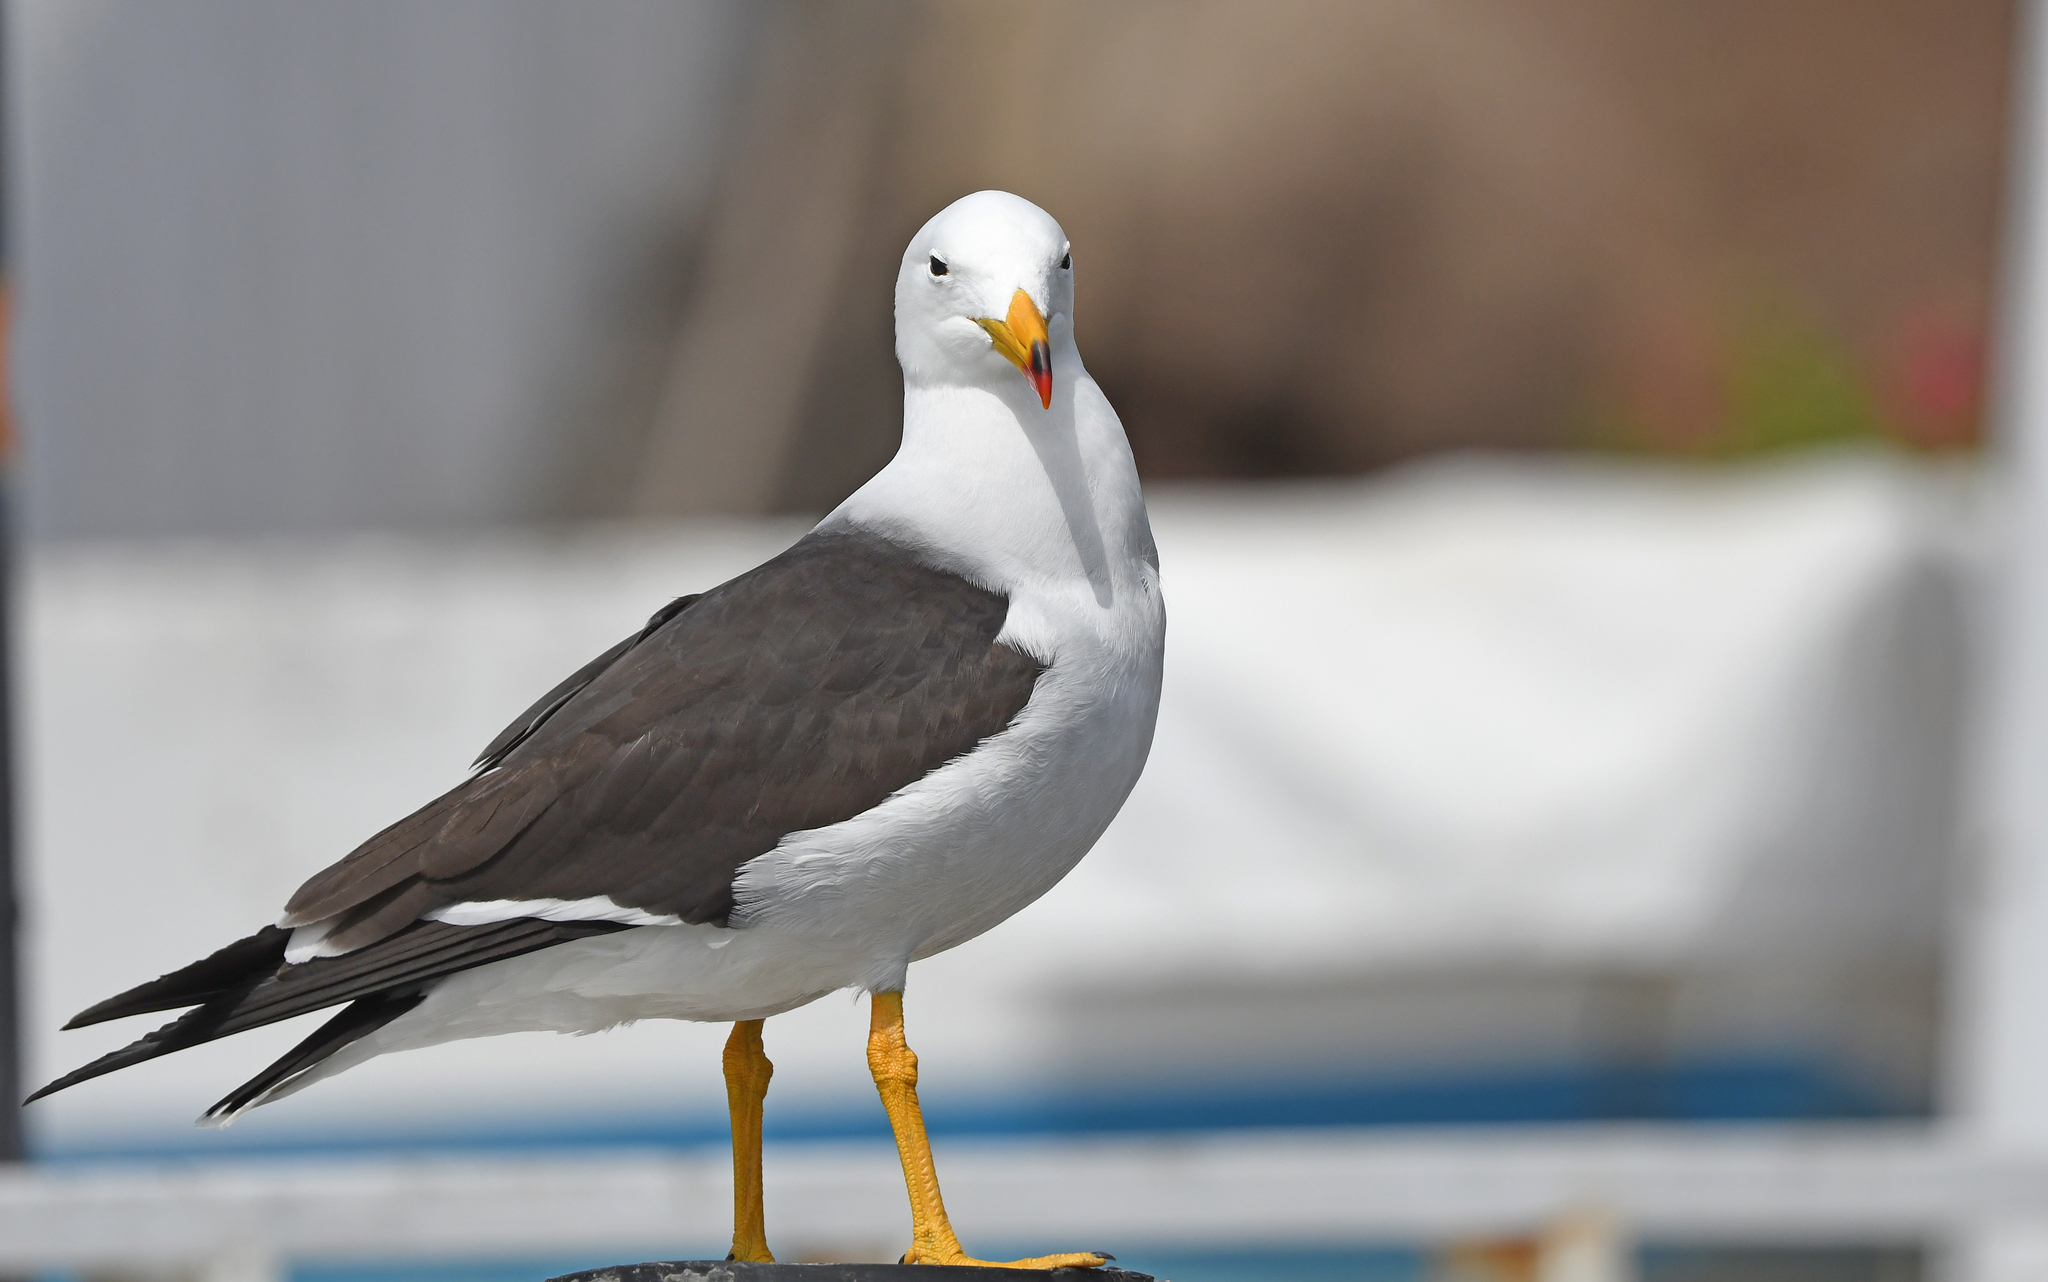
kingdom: Animalia
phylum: Chordata
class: Aves
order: Charadriiformes
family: Laridae
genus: Larus
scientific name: Larus belcheri
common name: Belcher's gull
